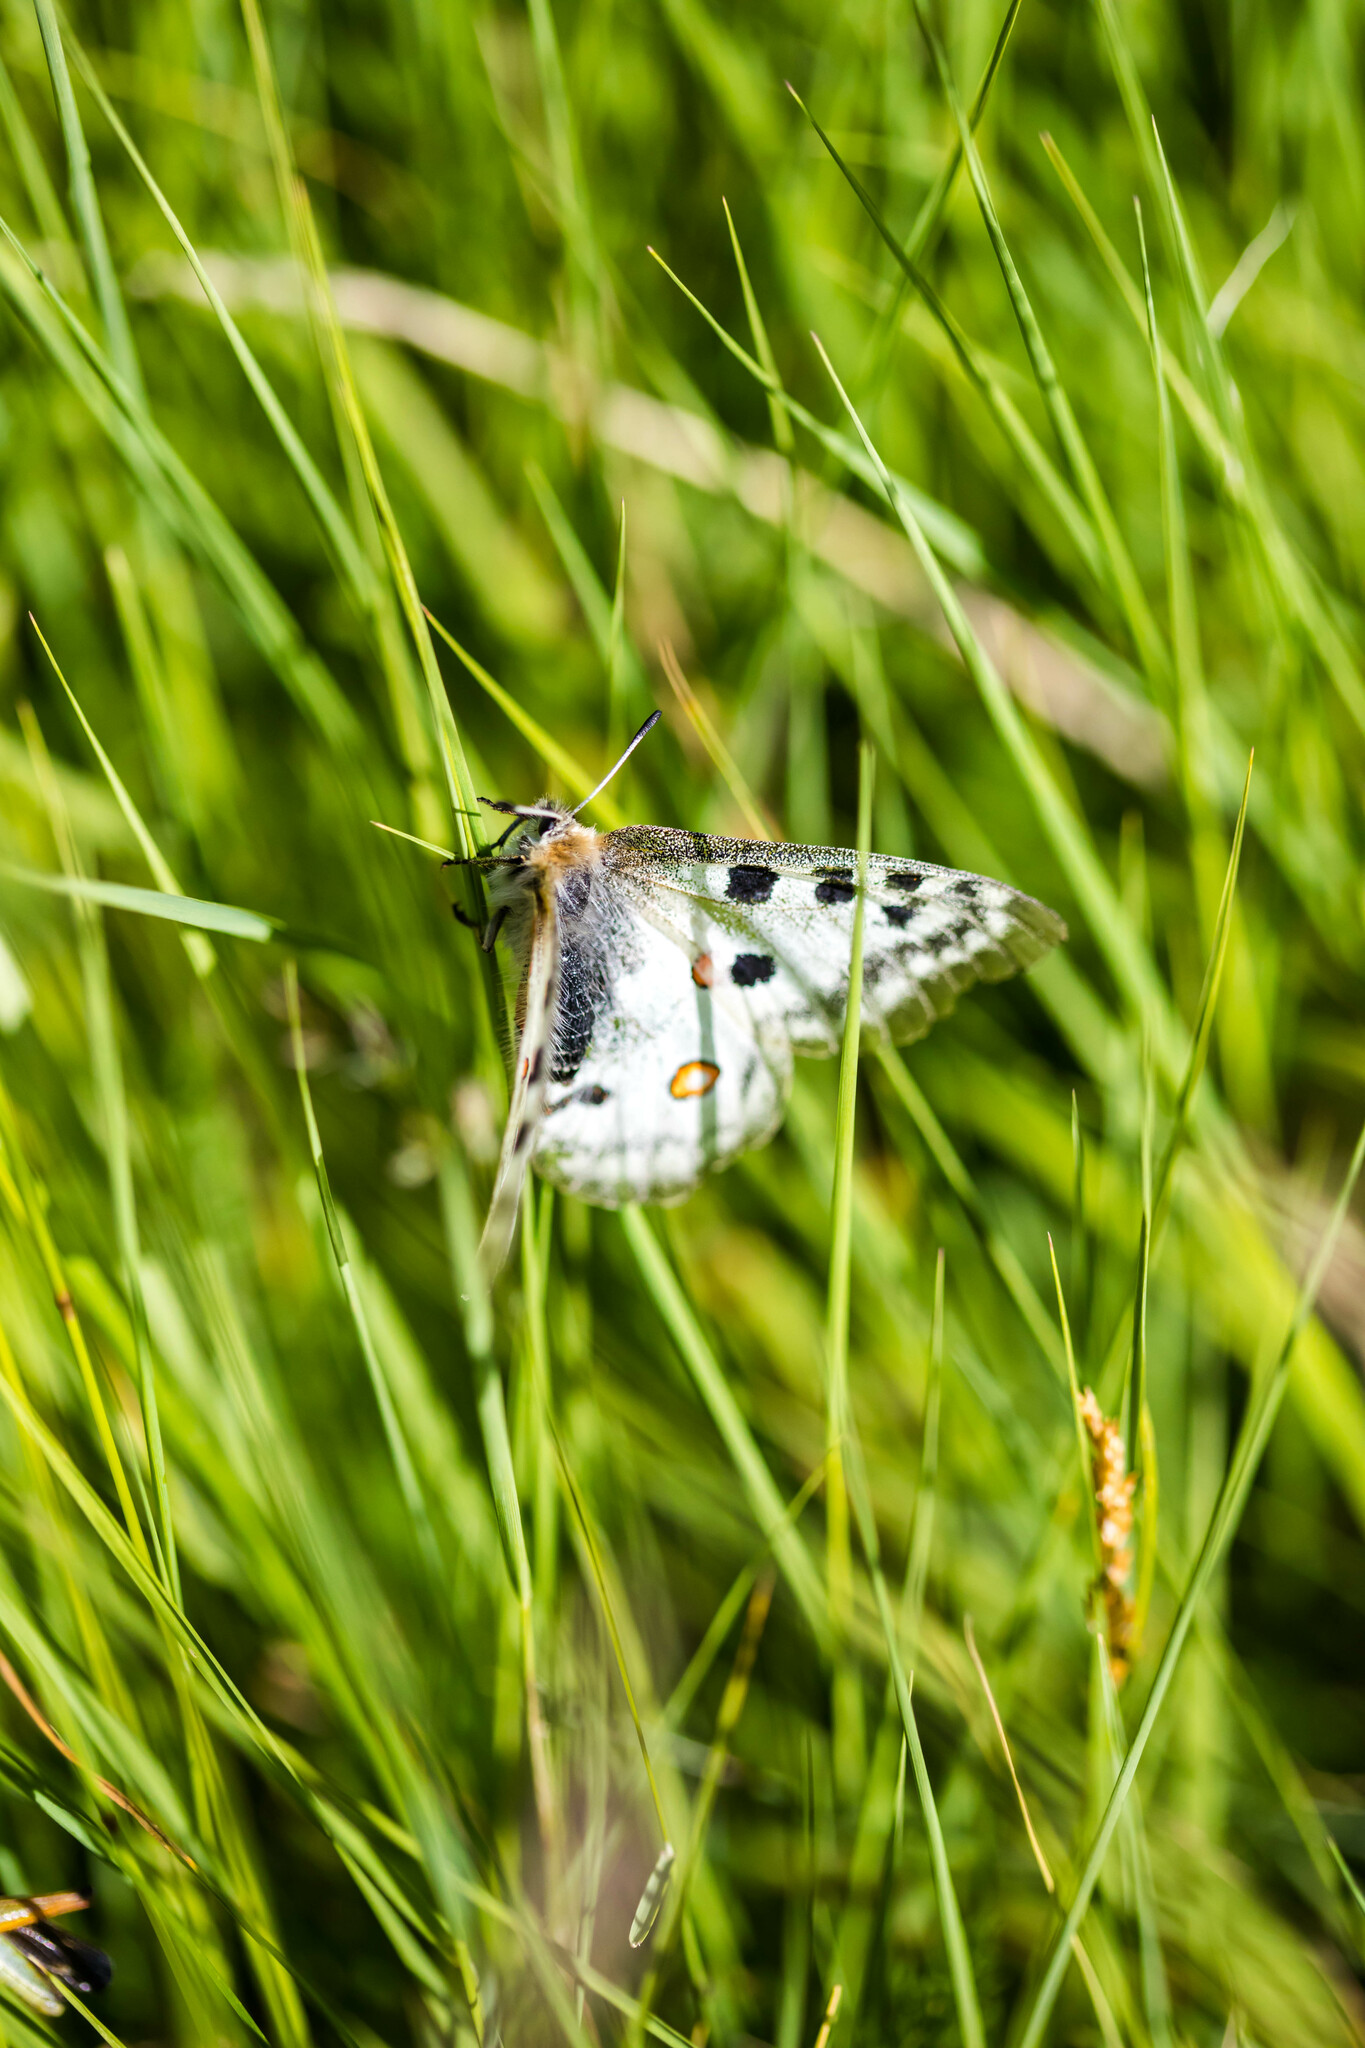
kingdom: Animalia
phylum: Arthropoda
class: Insecta
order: Lepidoptera
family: Papilionidae
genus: Parnassius
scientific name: Parnassius apollo
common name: Apollo
